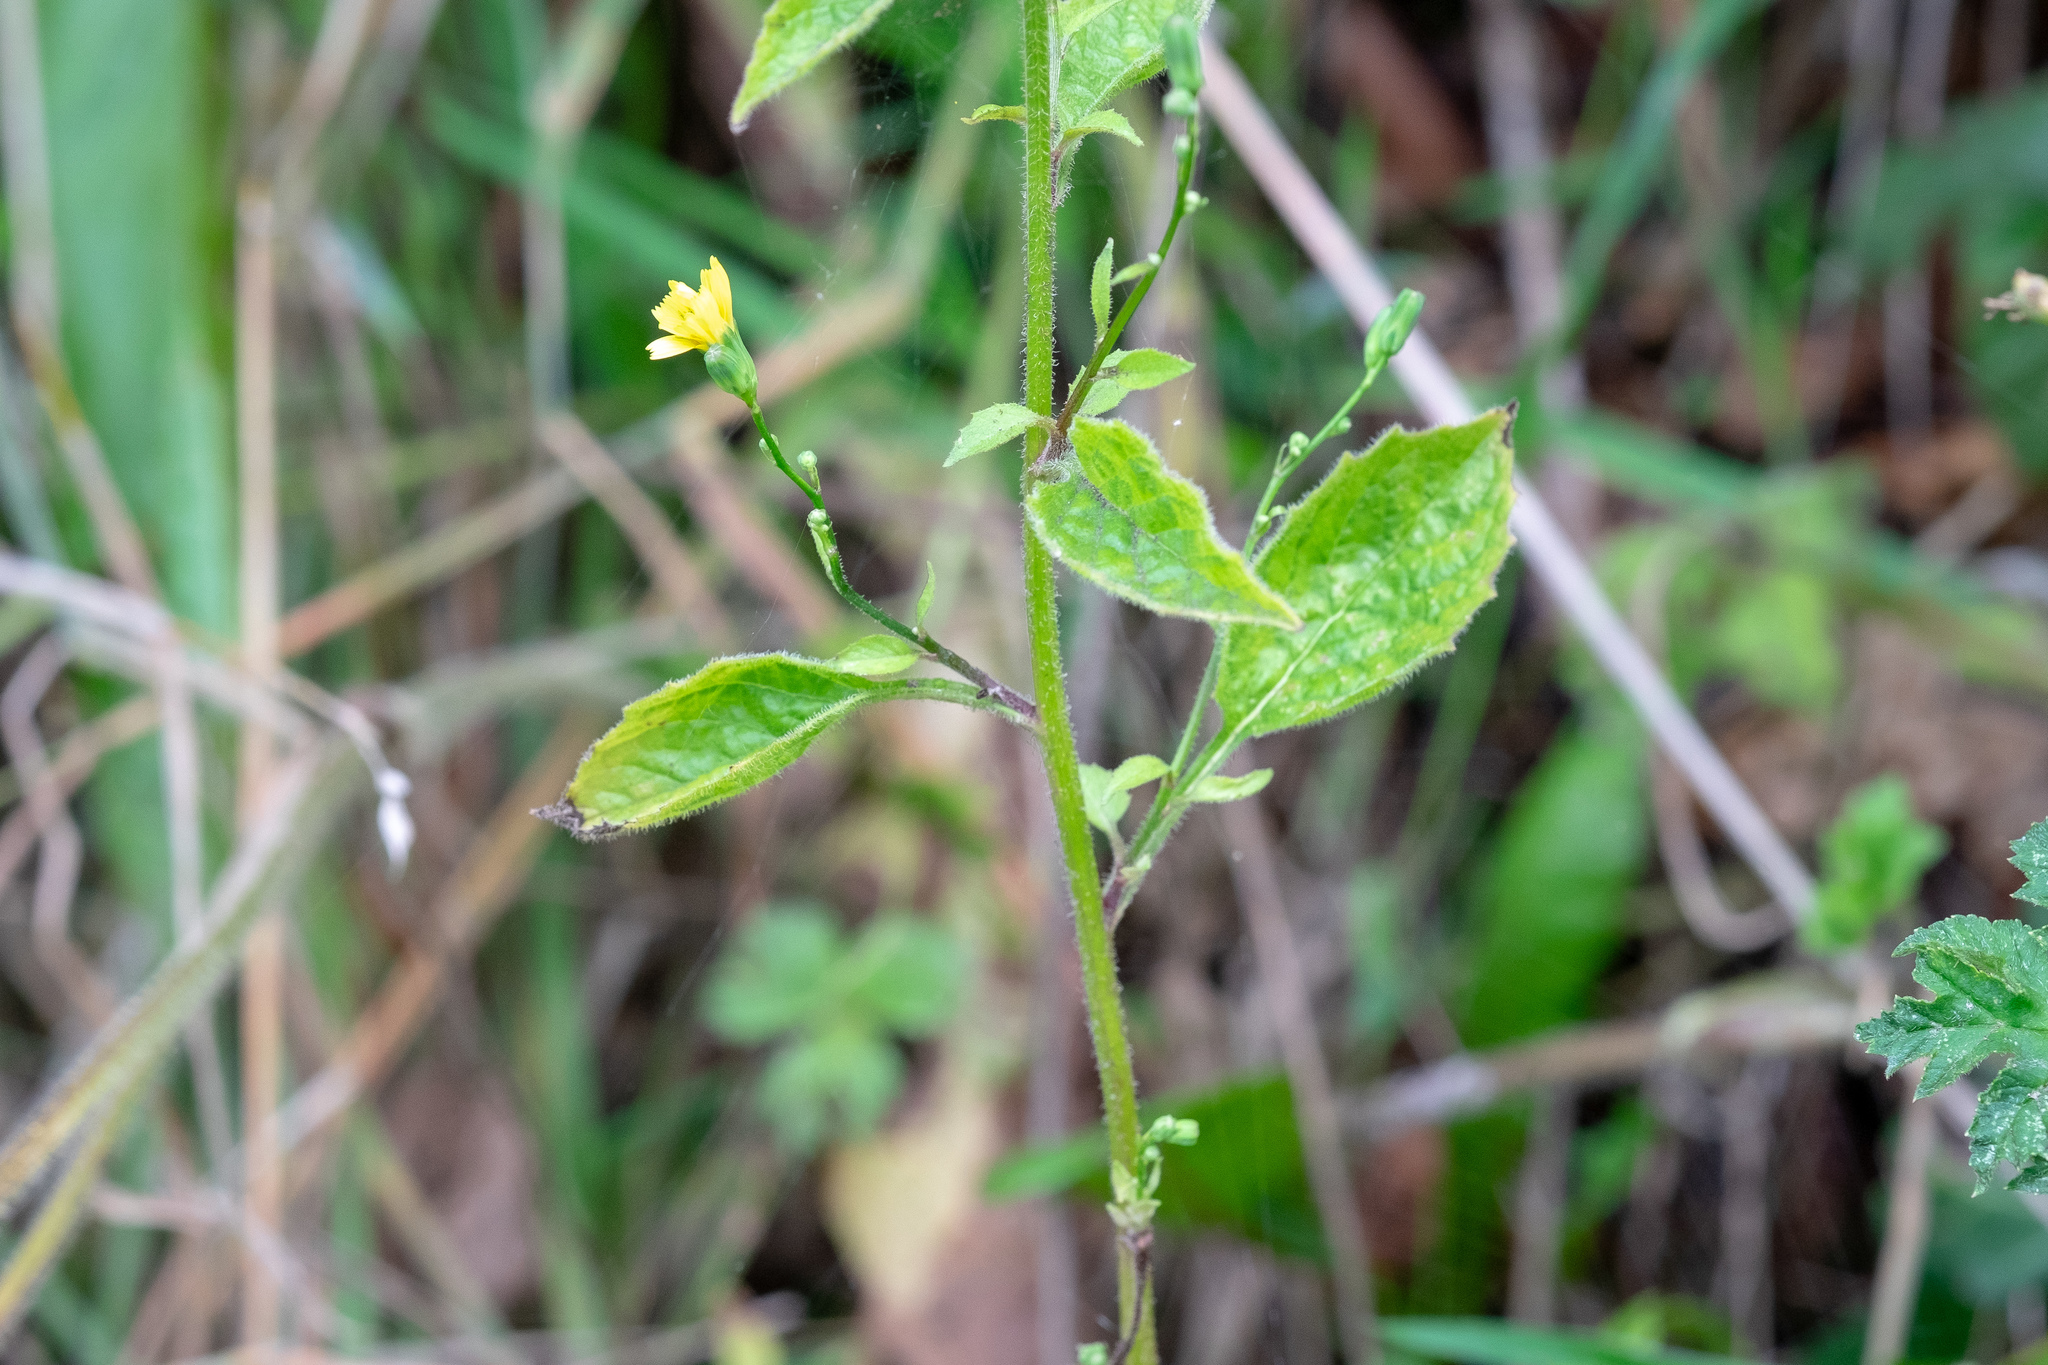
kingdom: Plantae
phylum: Tracheophyta
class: Magnoliopsida
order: Asterales
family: Asteraceae
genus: Lapsana
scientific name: Lapsana communis
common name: Nipplewort
